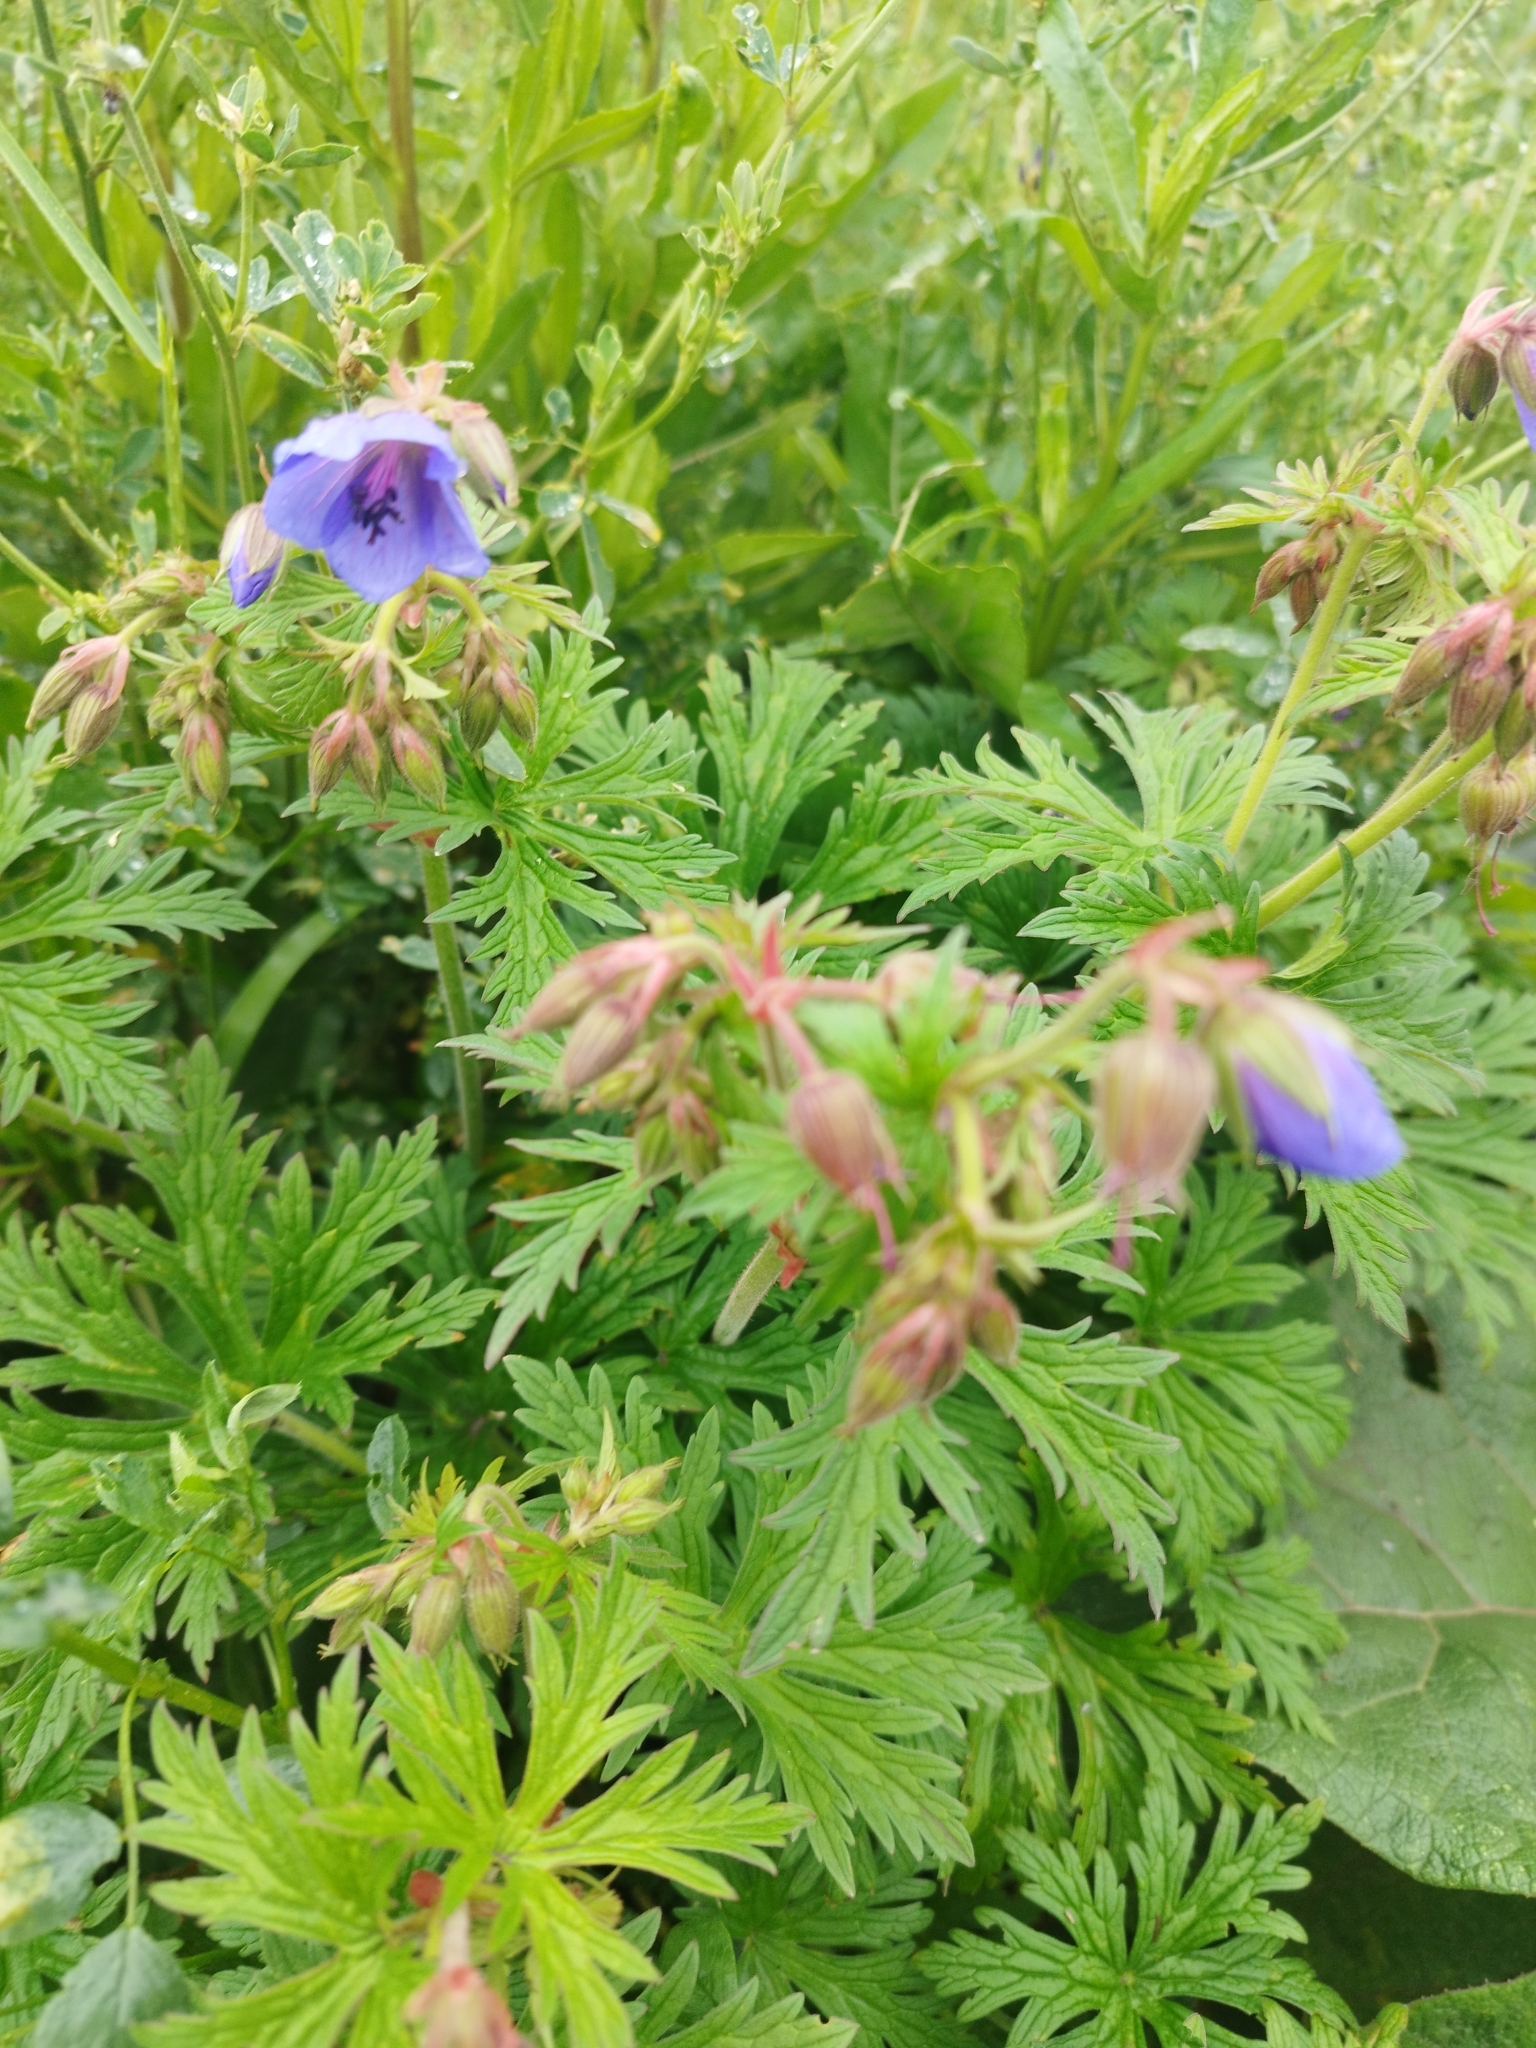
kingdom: Plantae
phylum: Tracheophyta
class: Magnoliopsida
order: Geraniales
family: Geraniaceae
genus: Geranium
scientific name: Geranium pratense
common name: Meadow crane's-bill
